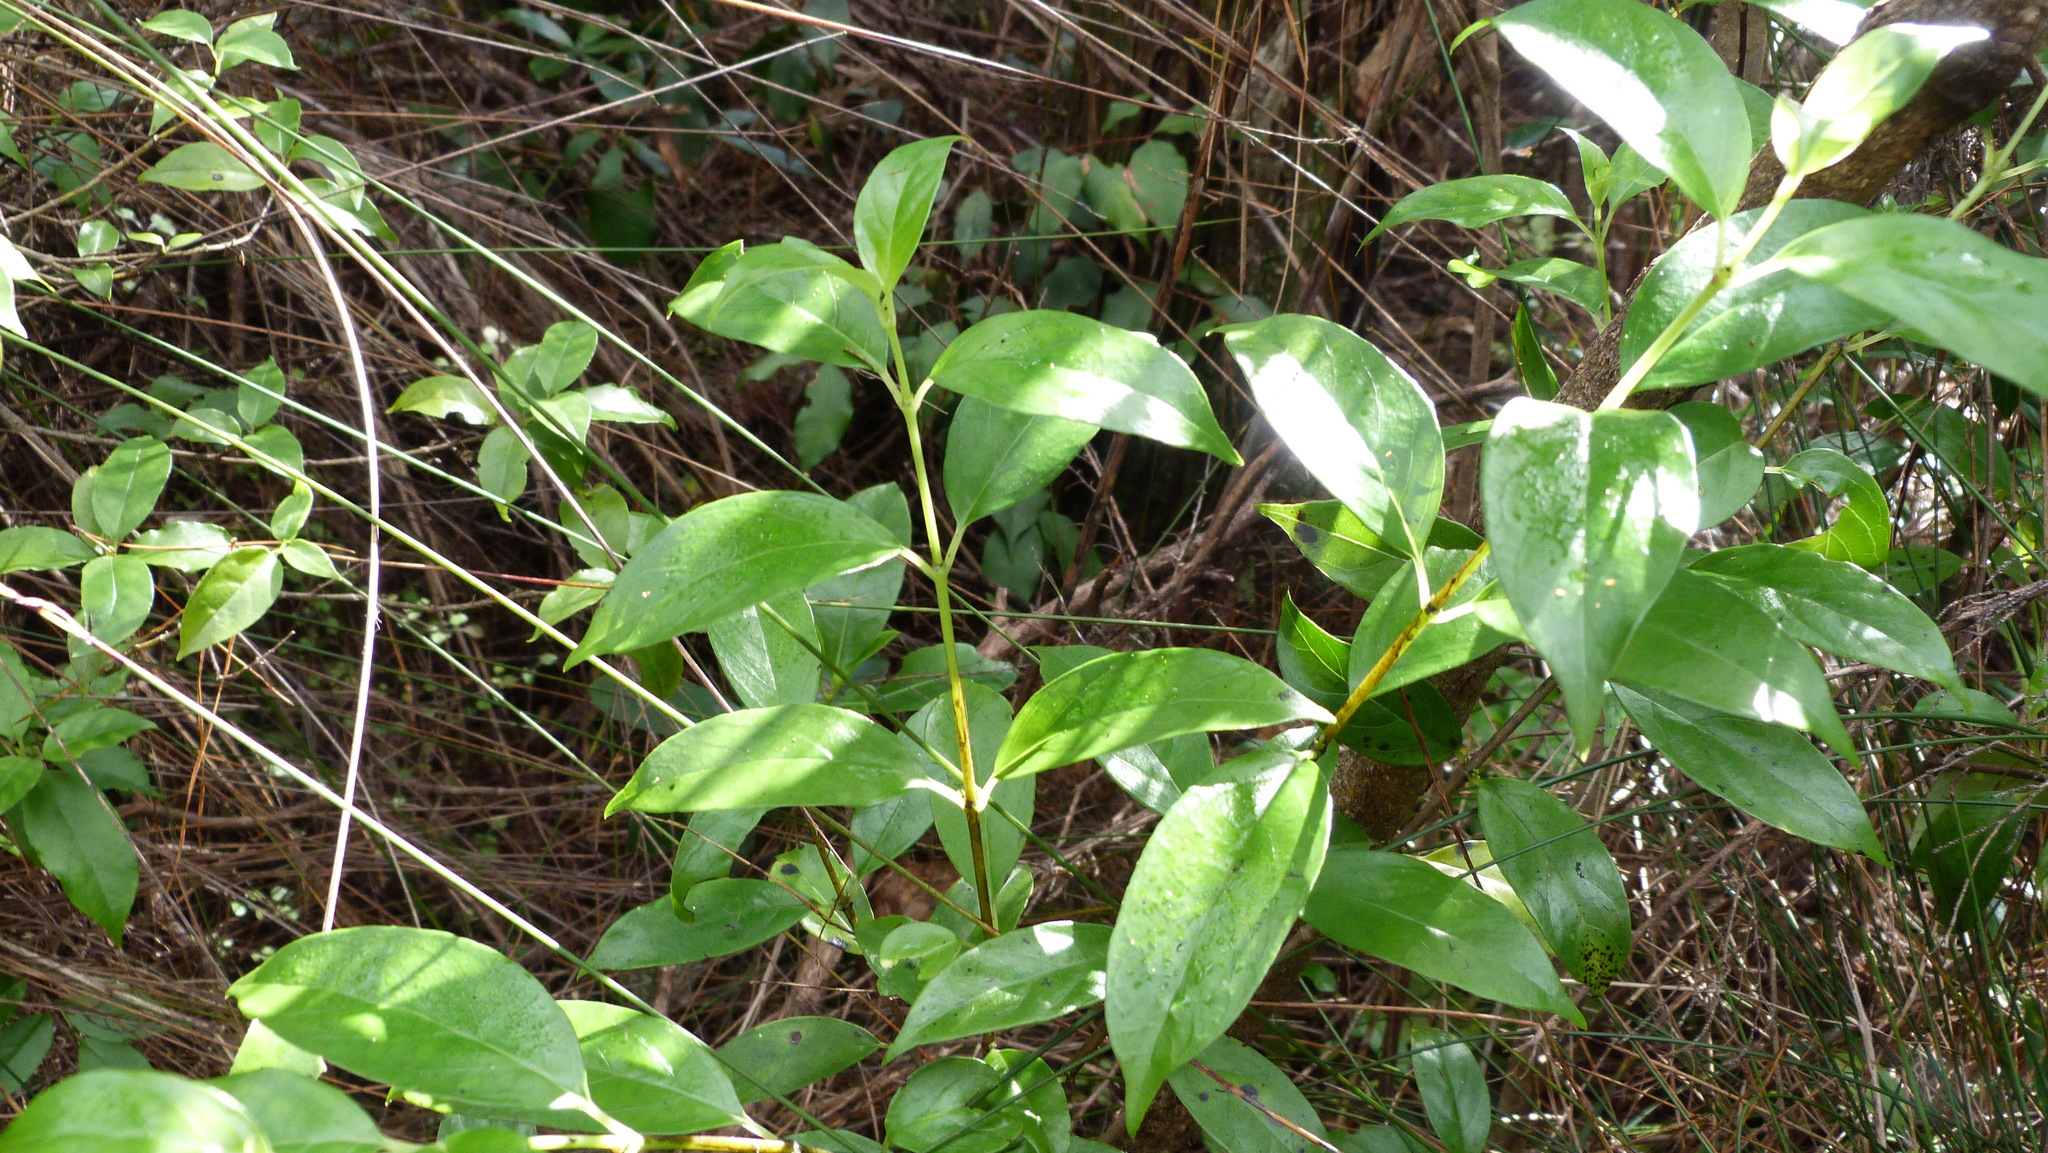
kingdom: Plantae
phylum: Tracheophyta
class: Magnoliopsida
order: Gentianales
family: Loganiaceae
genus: Geniostoma
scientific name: Geniostoma ligustrifolium
